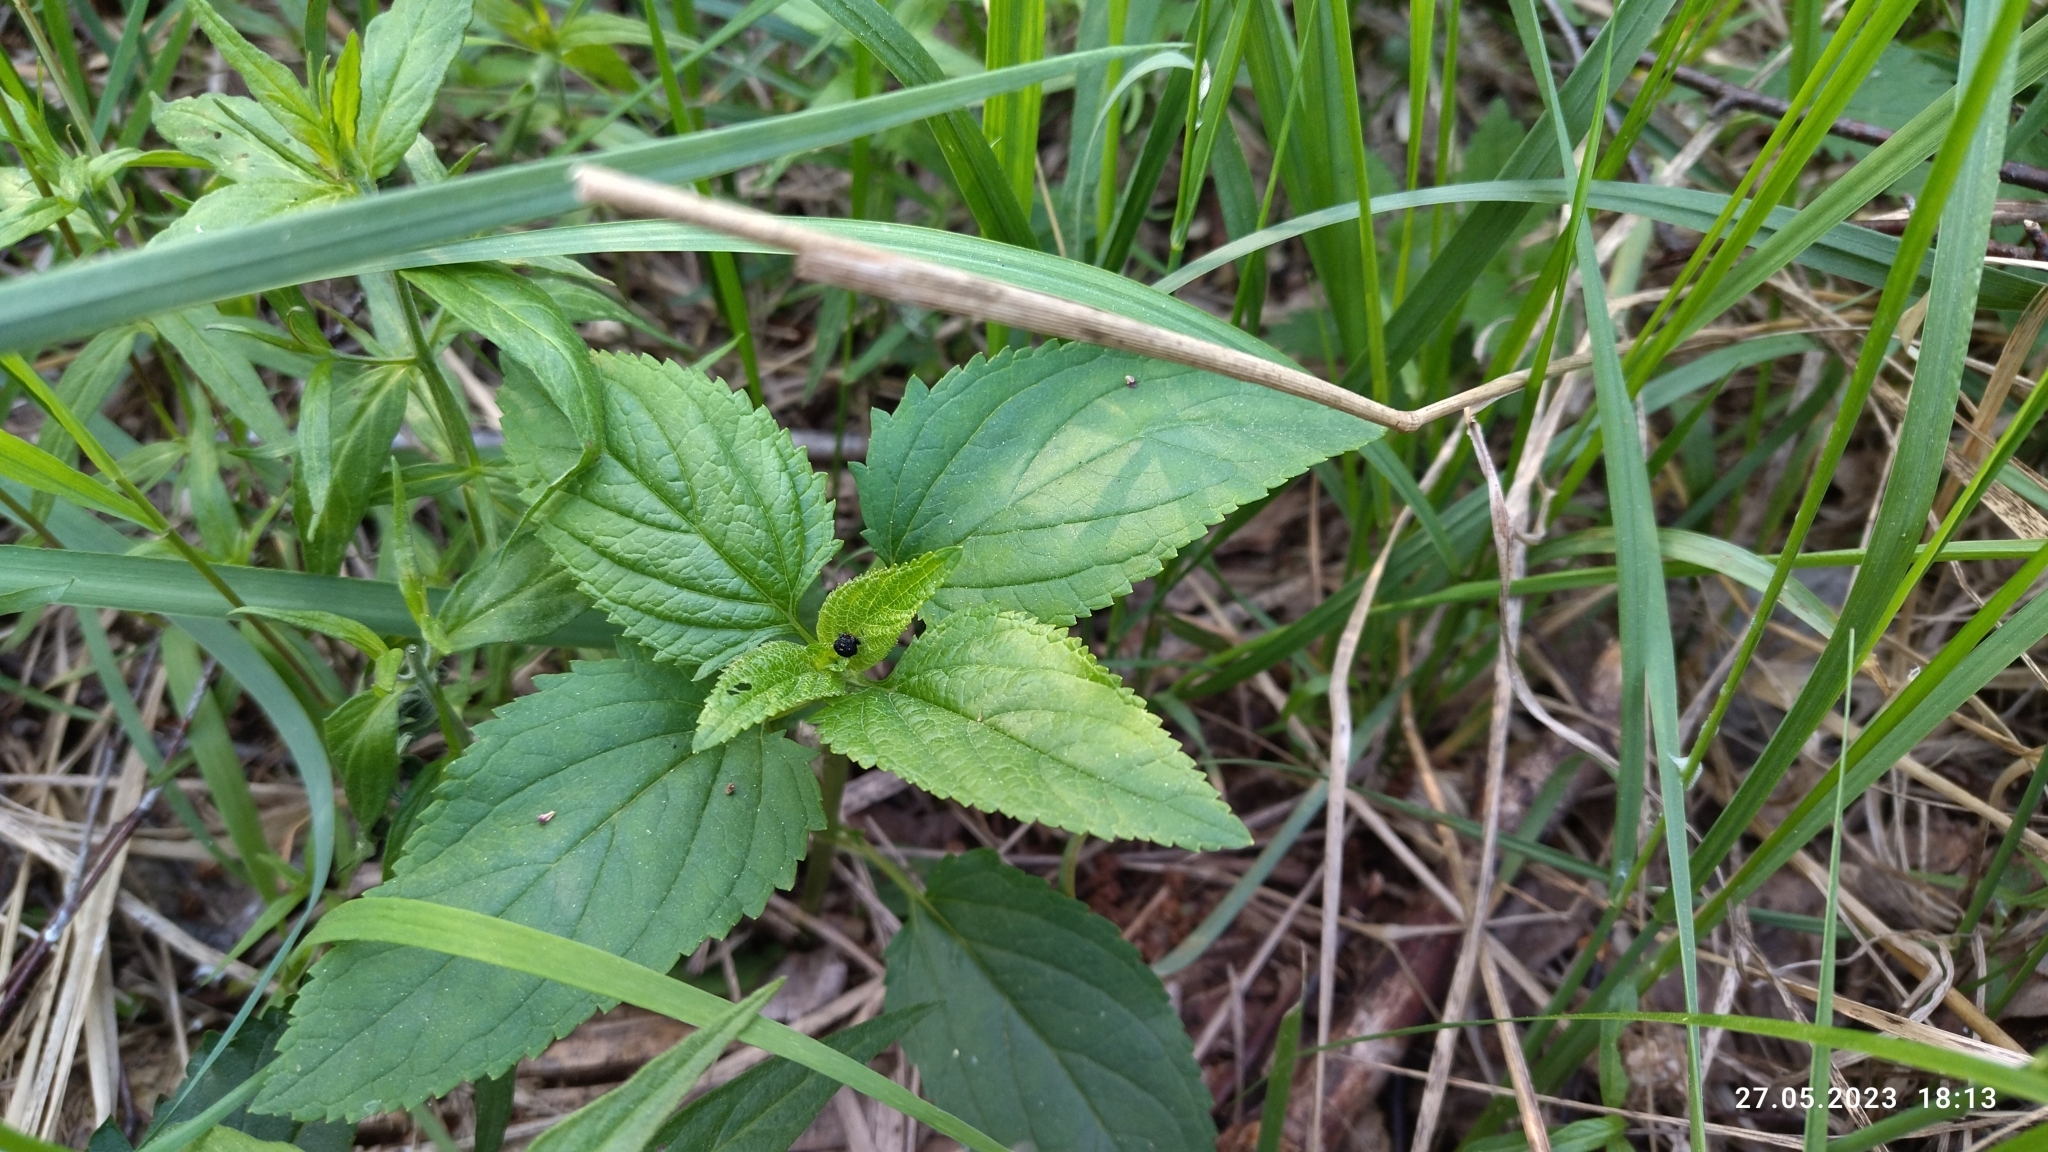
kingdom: Plantae
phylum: Tracheophyta
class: Magnoliopsida
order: Lamiales
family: Scrophulariaceae
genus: Scrophularia
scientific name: Scrophularia nodosa
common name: Common figwort
